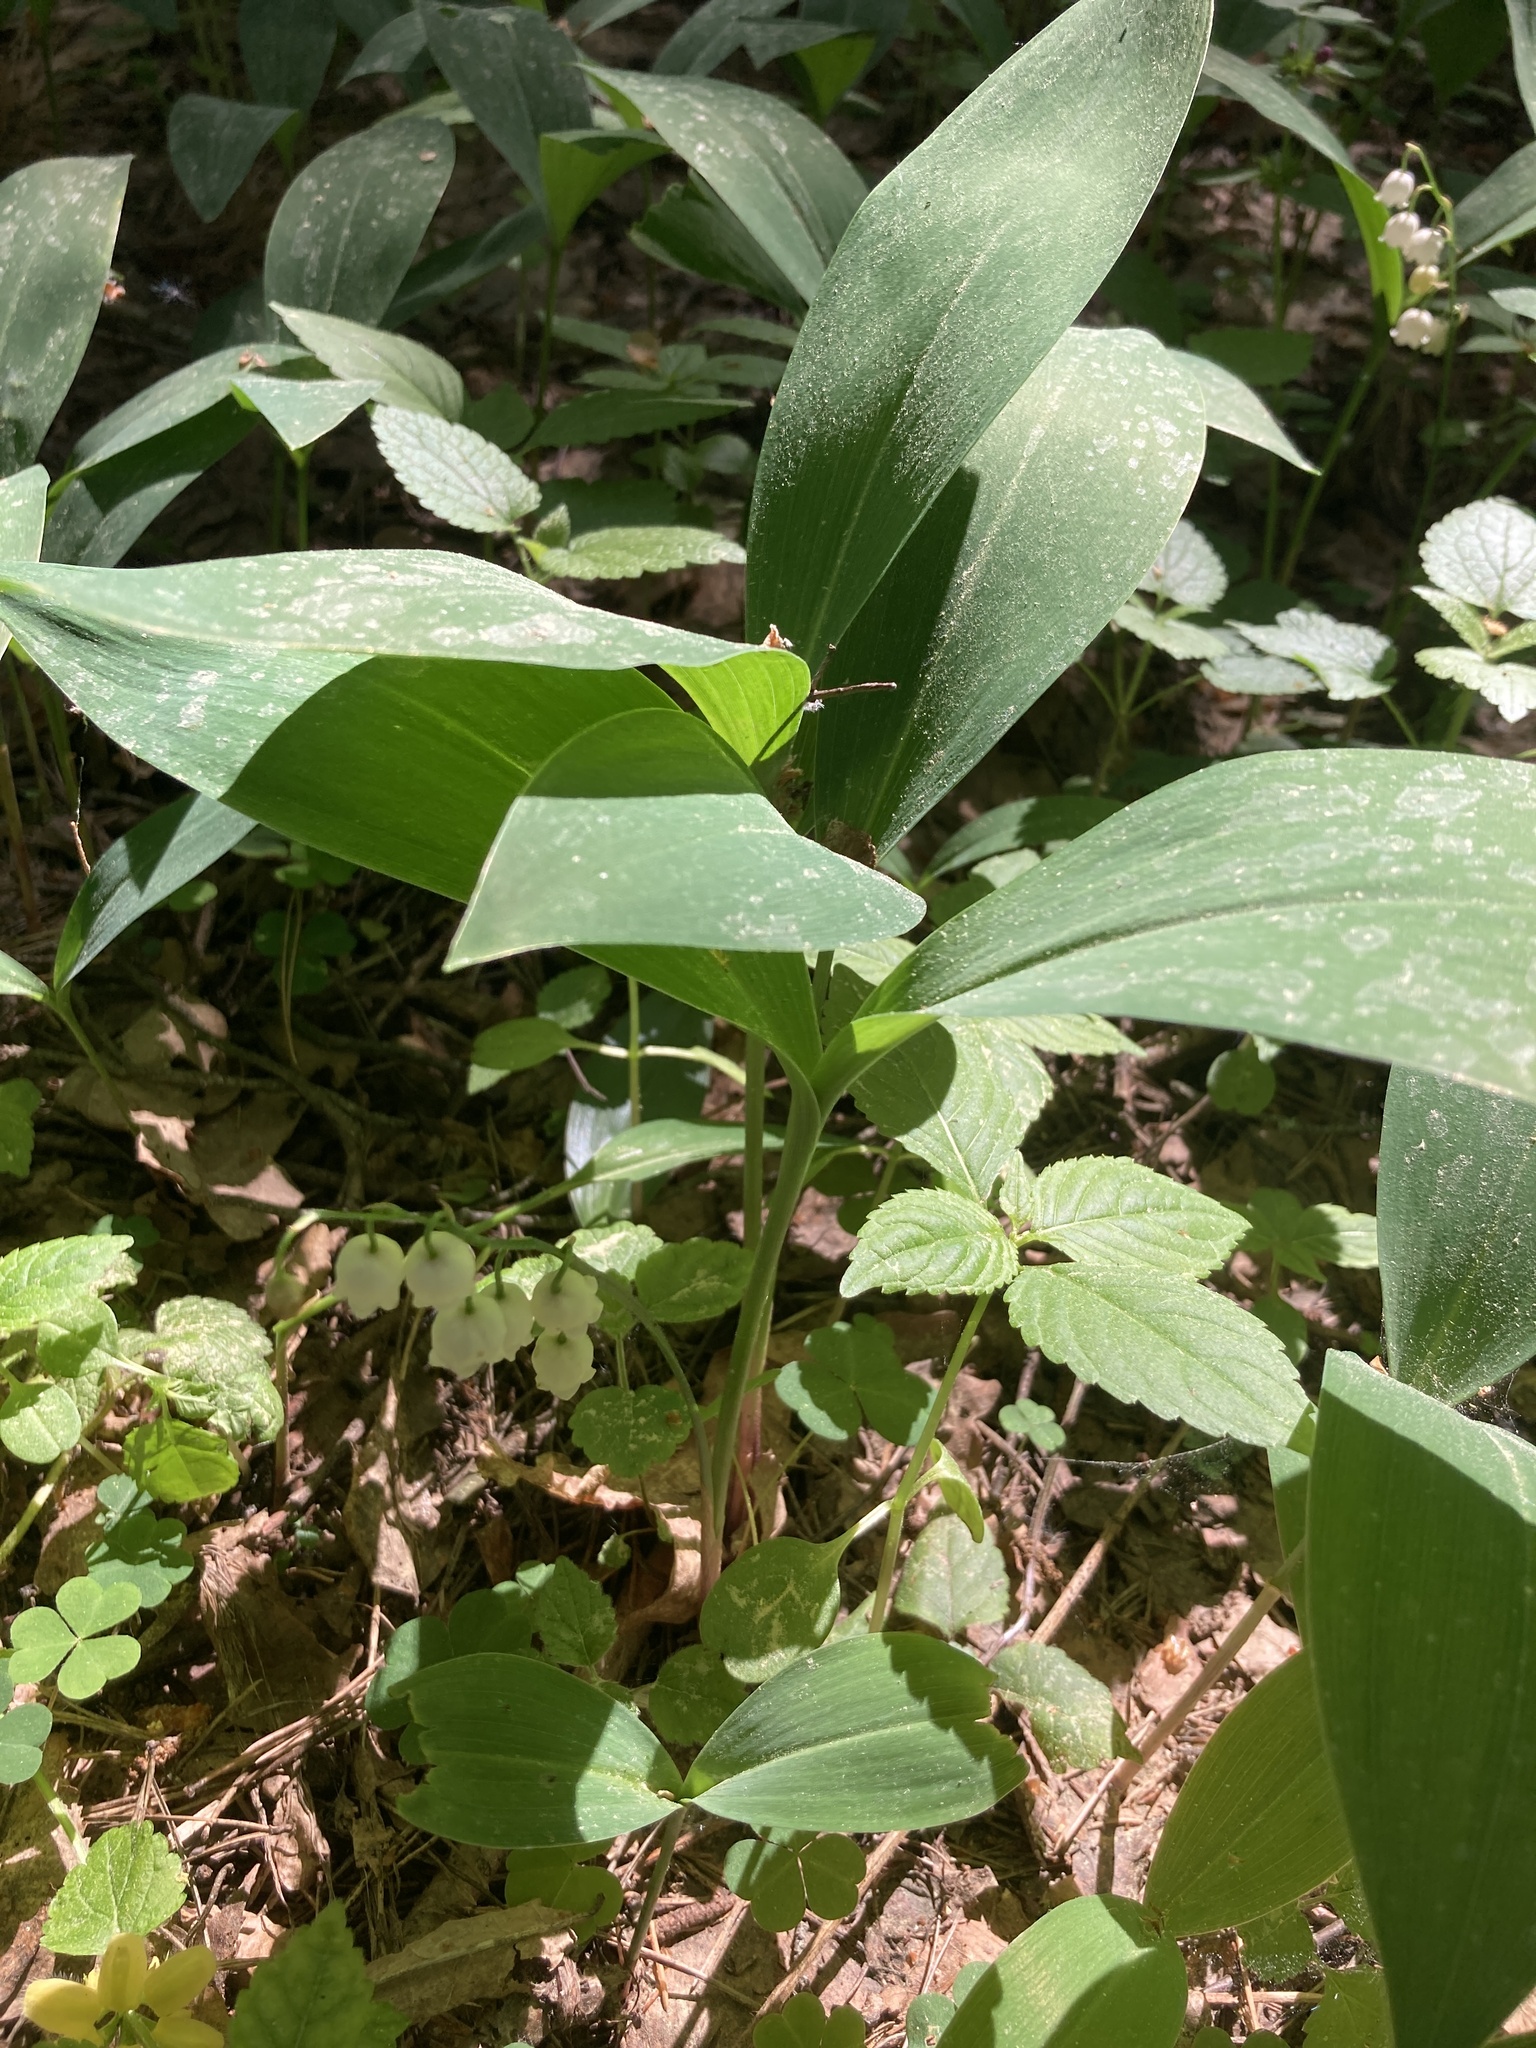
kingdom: Plantae
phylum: Tracheophyta
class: Liliopsida
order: Asparagales
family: Asparagaceae
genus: Convallaria
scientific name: Convallaria majalis
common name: Lily-of-the-valley
